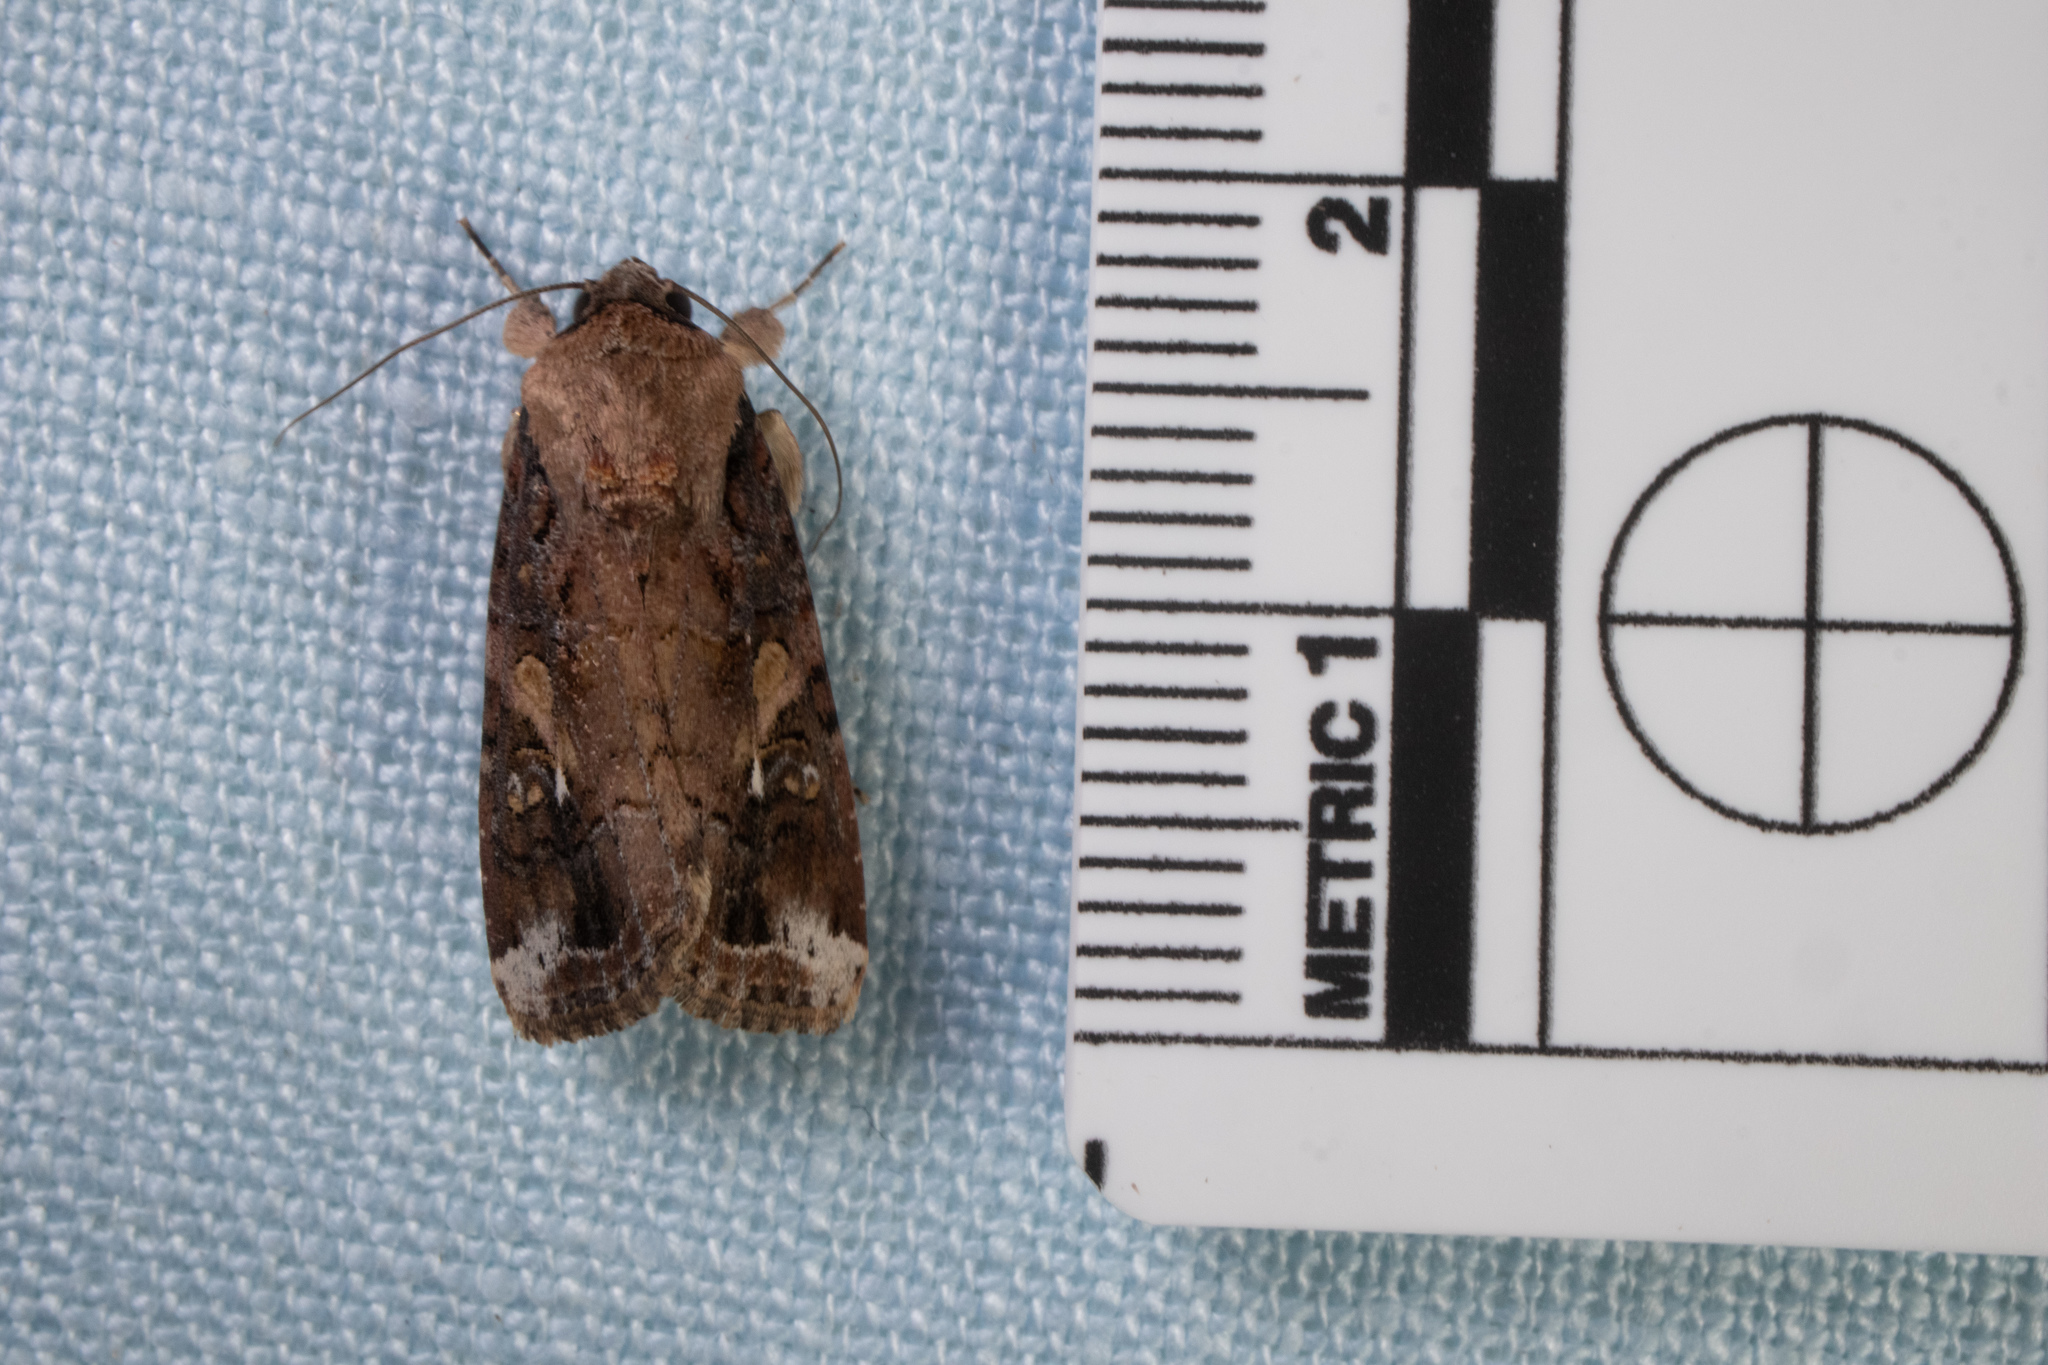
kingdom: Animalia
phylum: Arthropoda
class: Insecta
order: Lepidoptera
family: Noctuidae
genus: Spodoptera
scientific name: Spodoptera frugiperda
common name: Fall armyworm
